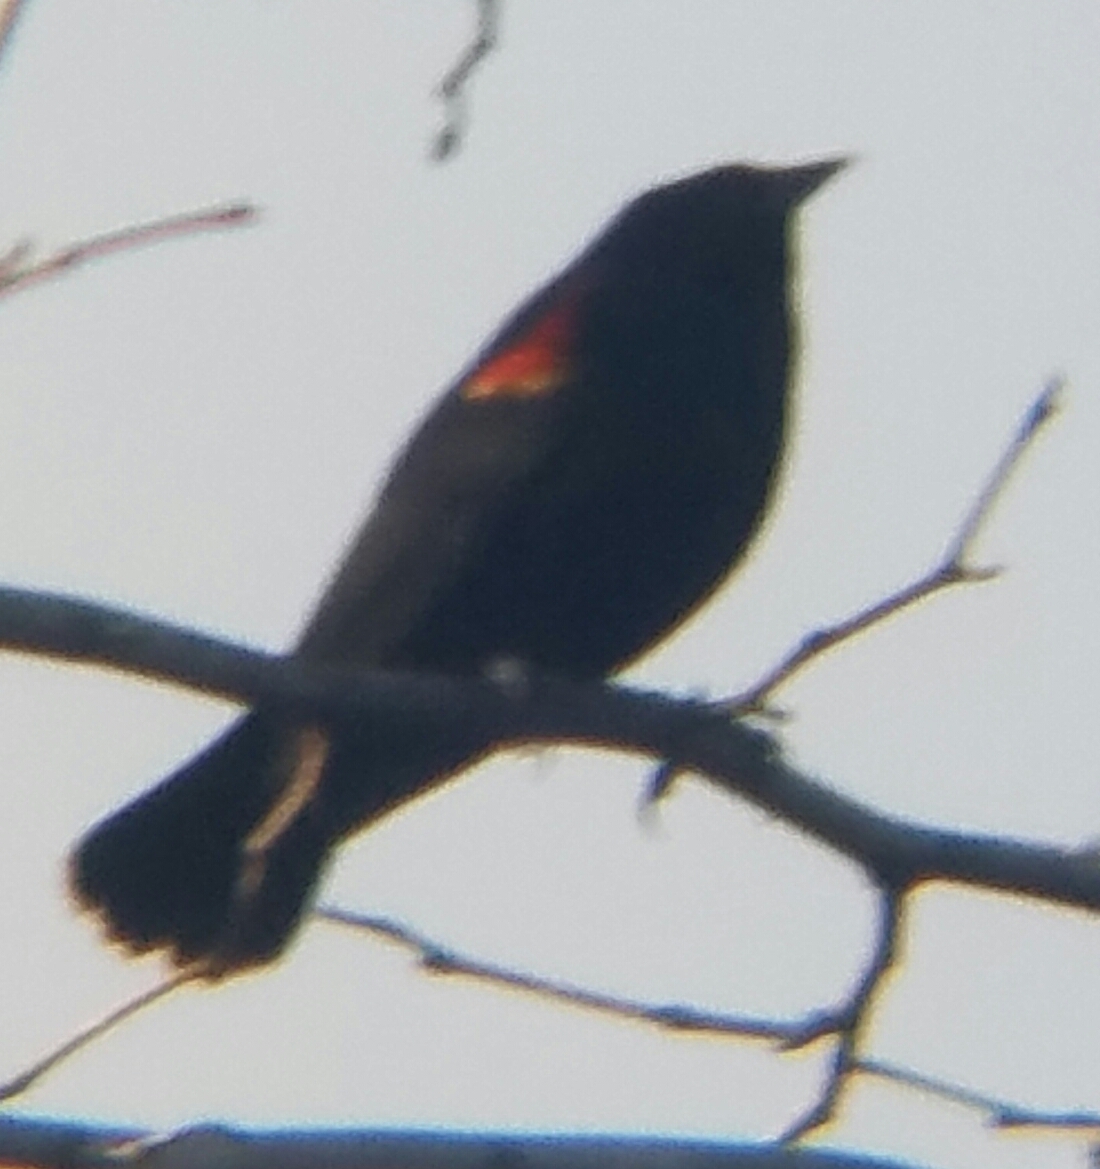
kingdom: Animalia
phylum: Chordata
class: Aves
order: Passeriformes
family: Icteridae
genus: Agelaius
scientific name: Agelaius phoeniceus
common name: Red-winged blackbird
